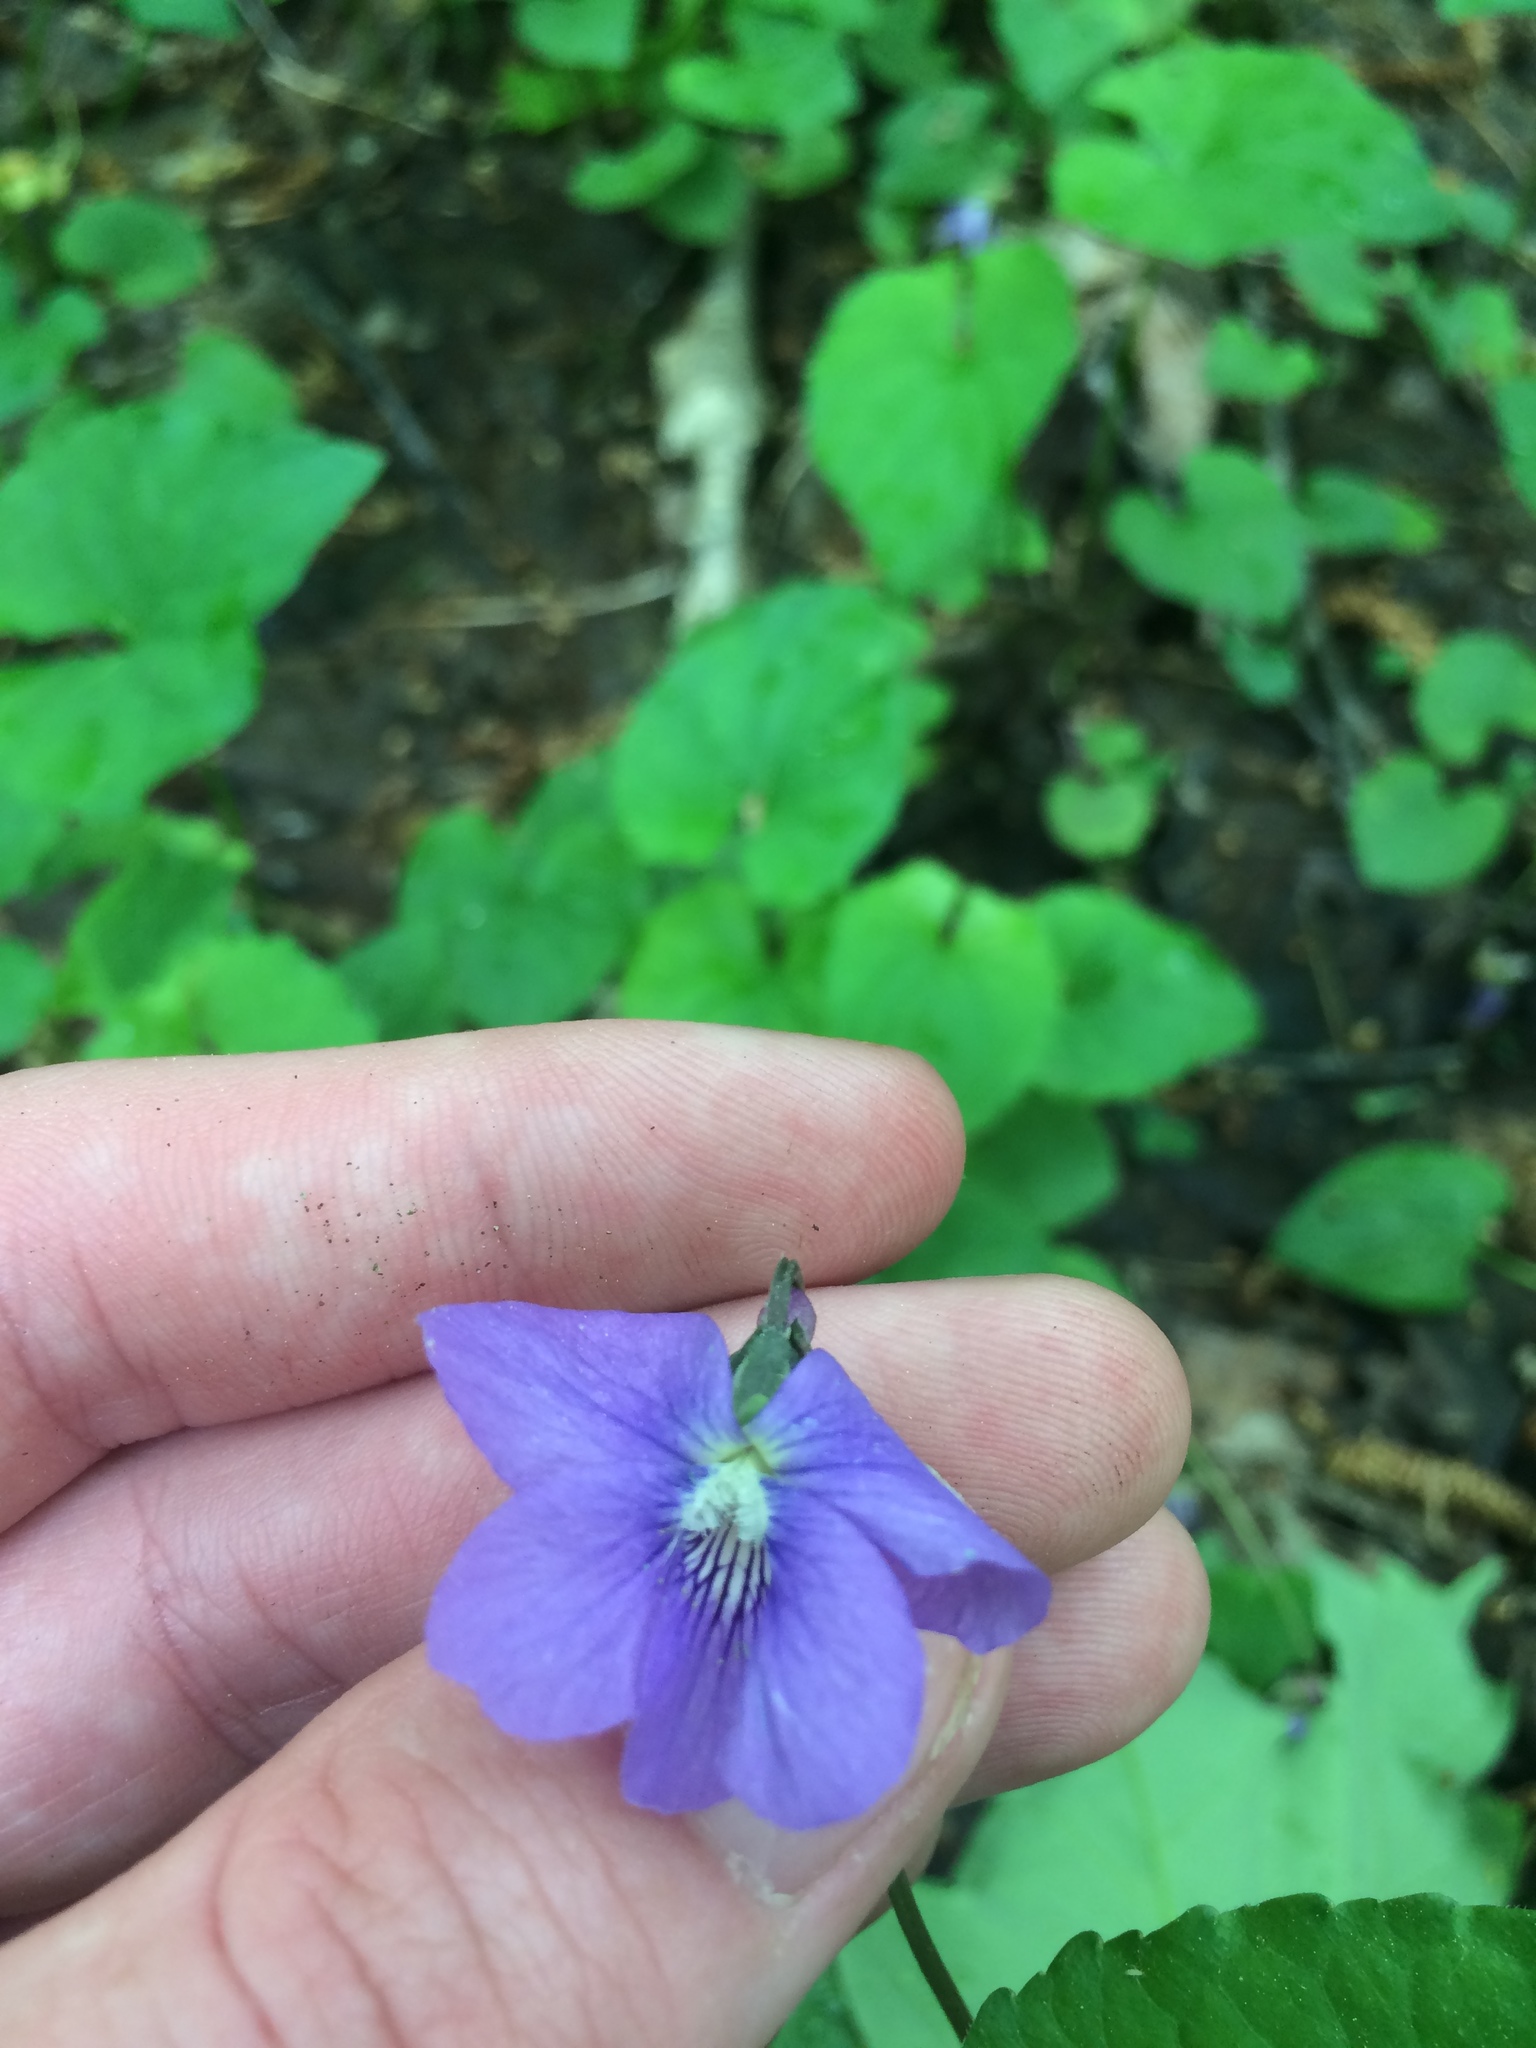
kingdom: Plantae
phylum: Tracheophyta
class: Magnoliopsida
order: Malpighiales
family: Violaceae
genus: Viola
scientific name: Viola cucullata
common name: Marsh blue violet
